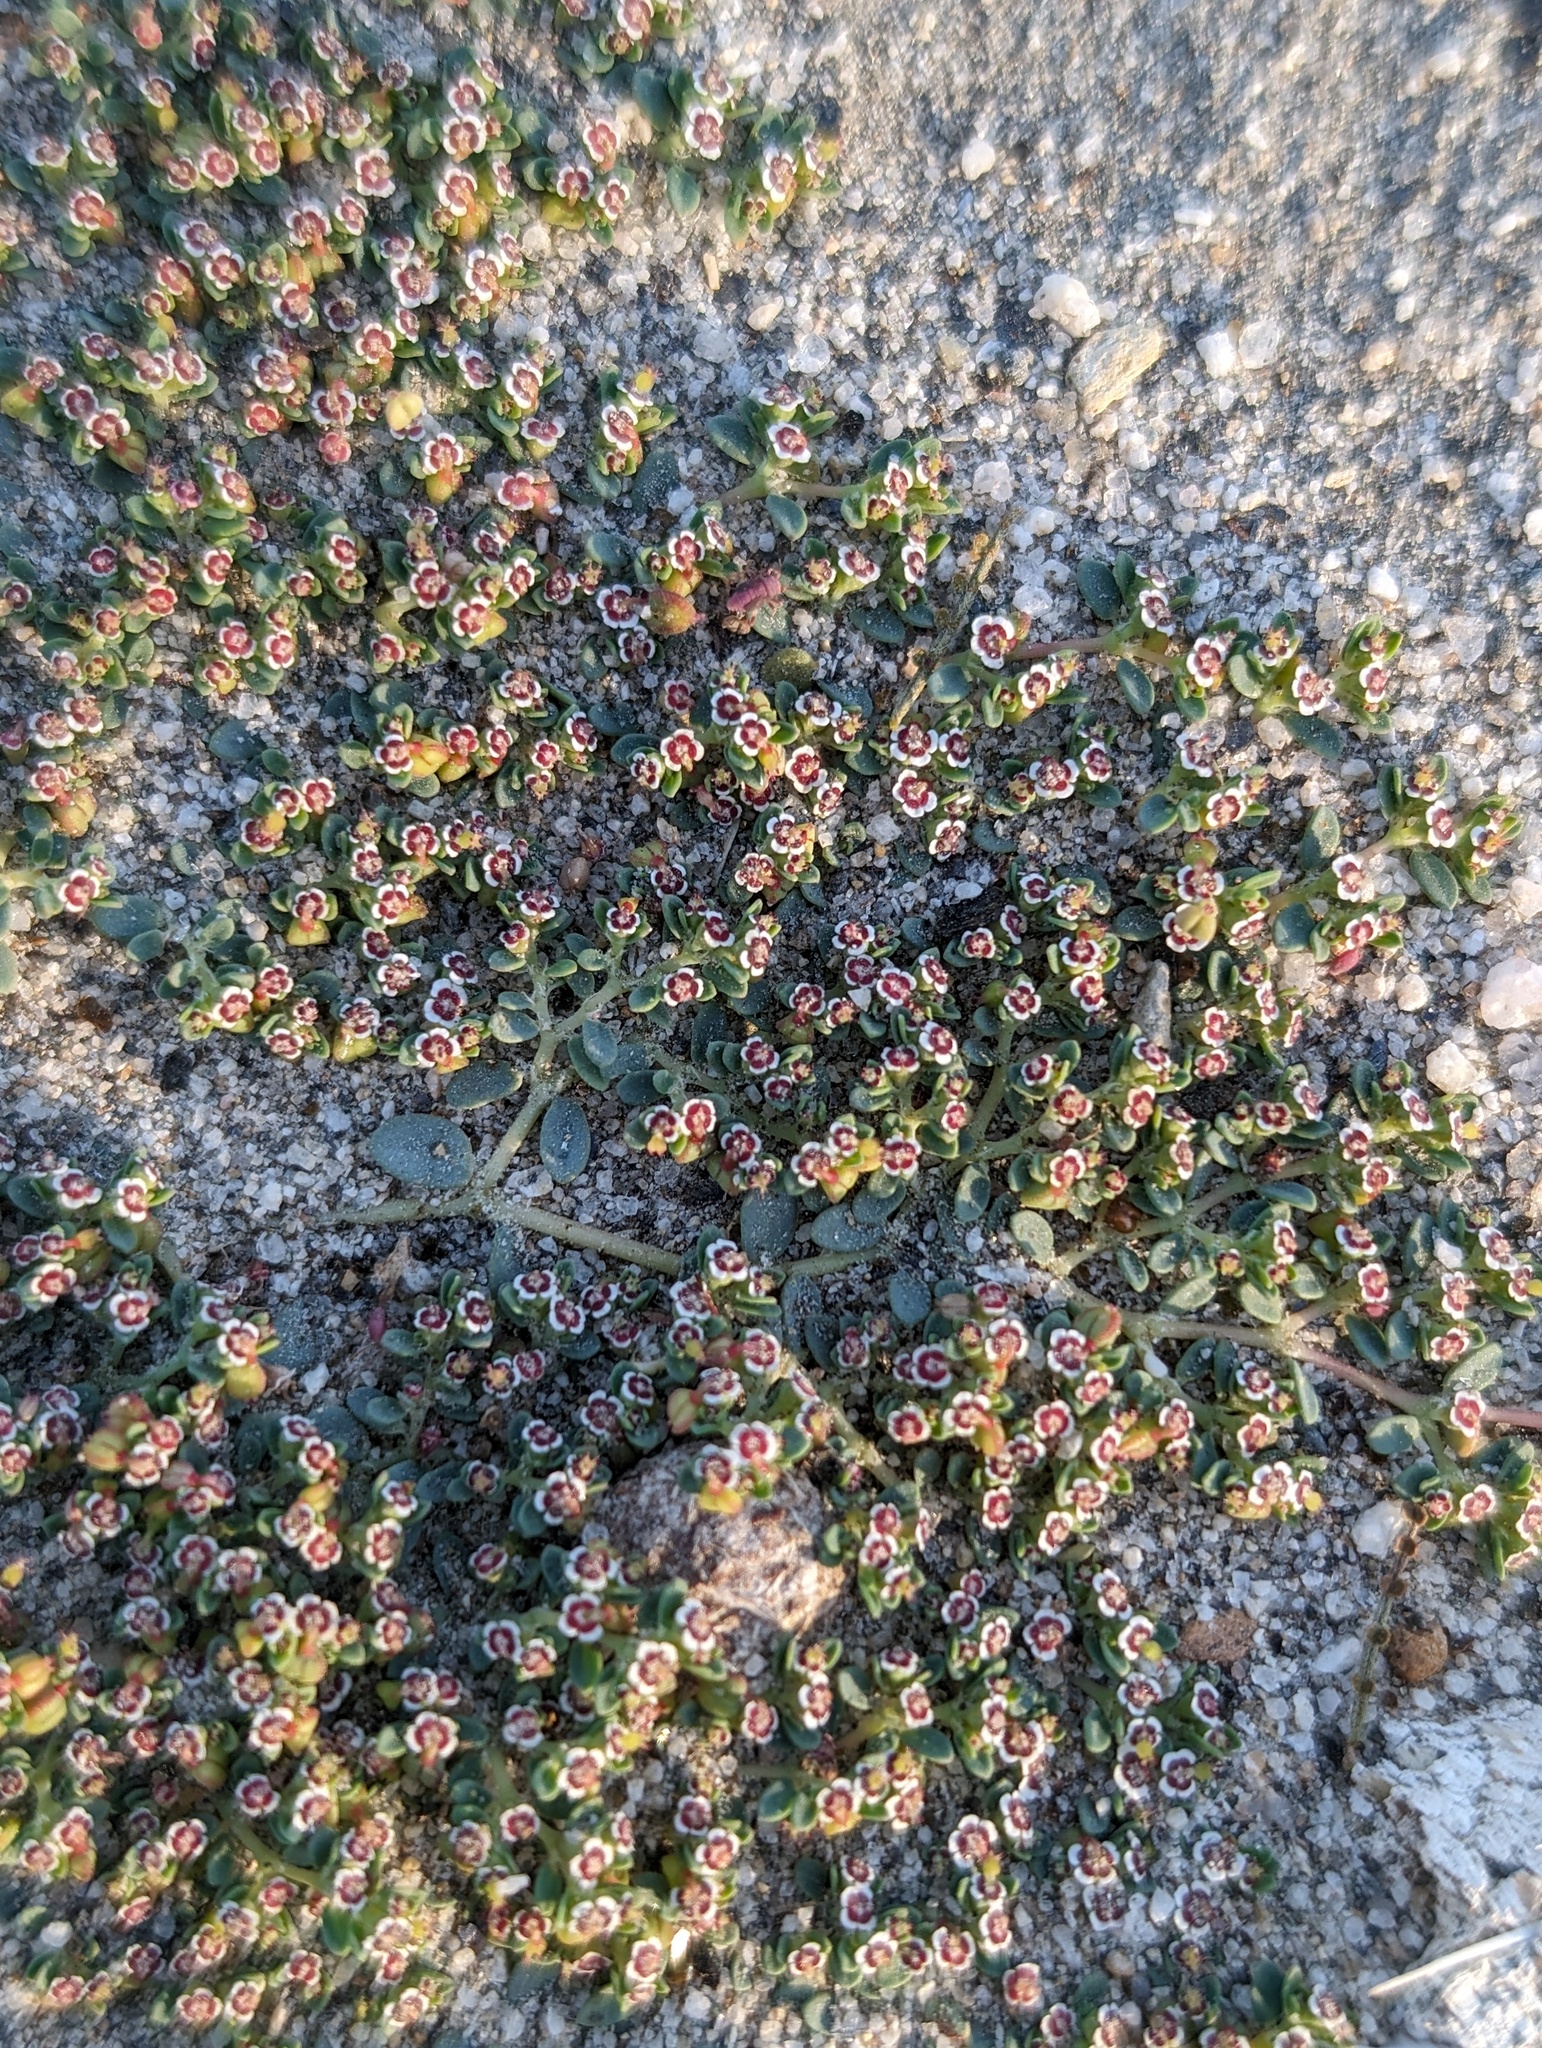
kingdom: Plantae
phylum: Tracheophyta
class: Magnoliopsida
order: Malpighiales
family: Euphorbiaceae
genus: Euphorbia
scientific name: Euphorbia polycarpa
